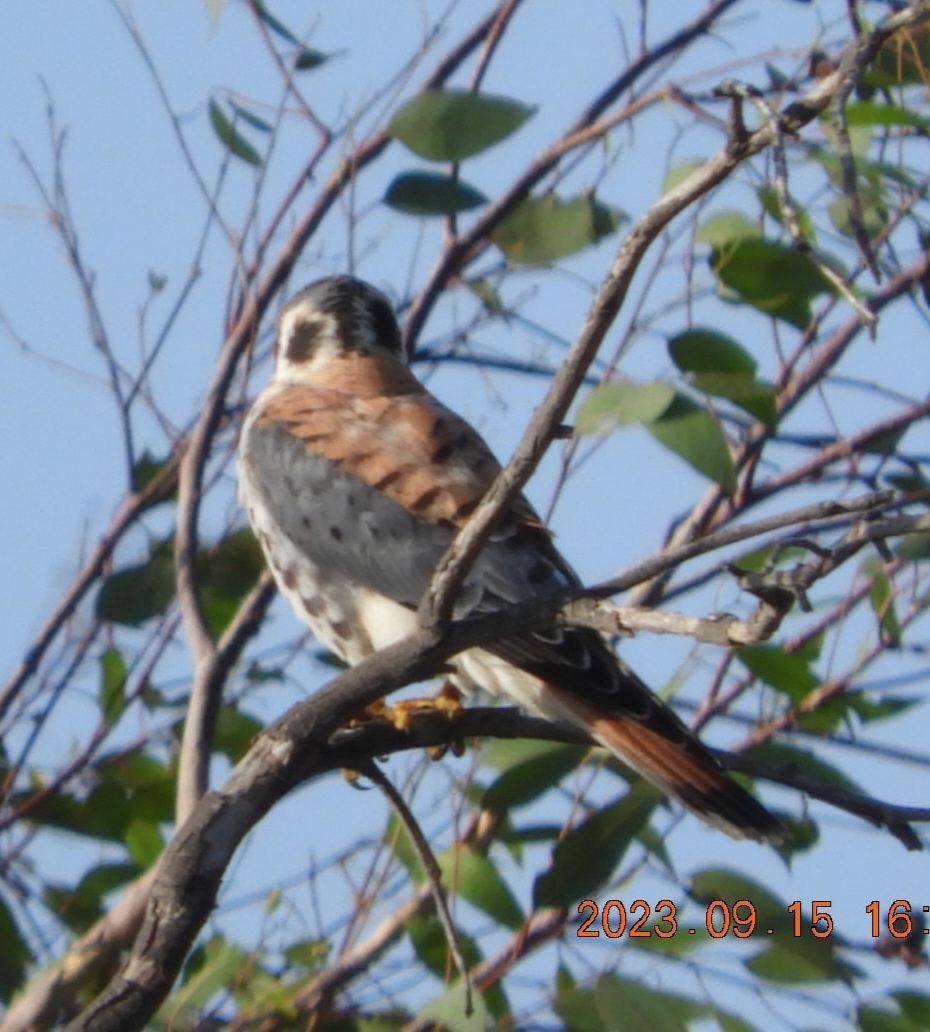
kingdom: Animalia
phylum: Chordata
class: Aves
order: Falconiformes
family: Falconidae
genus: Falco
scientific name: Falco sparverius
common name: American kestrel
